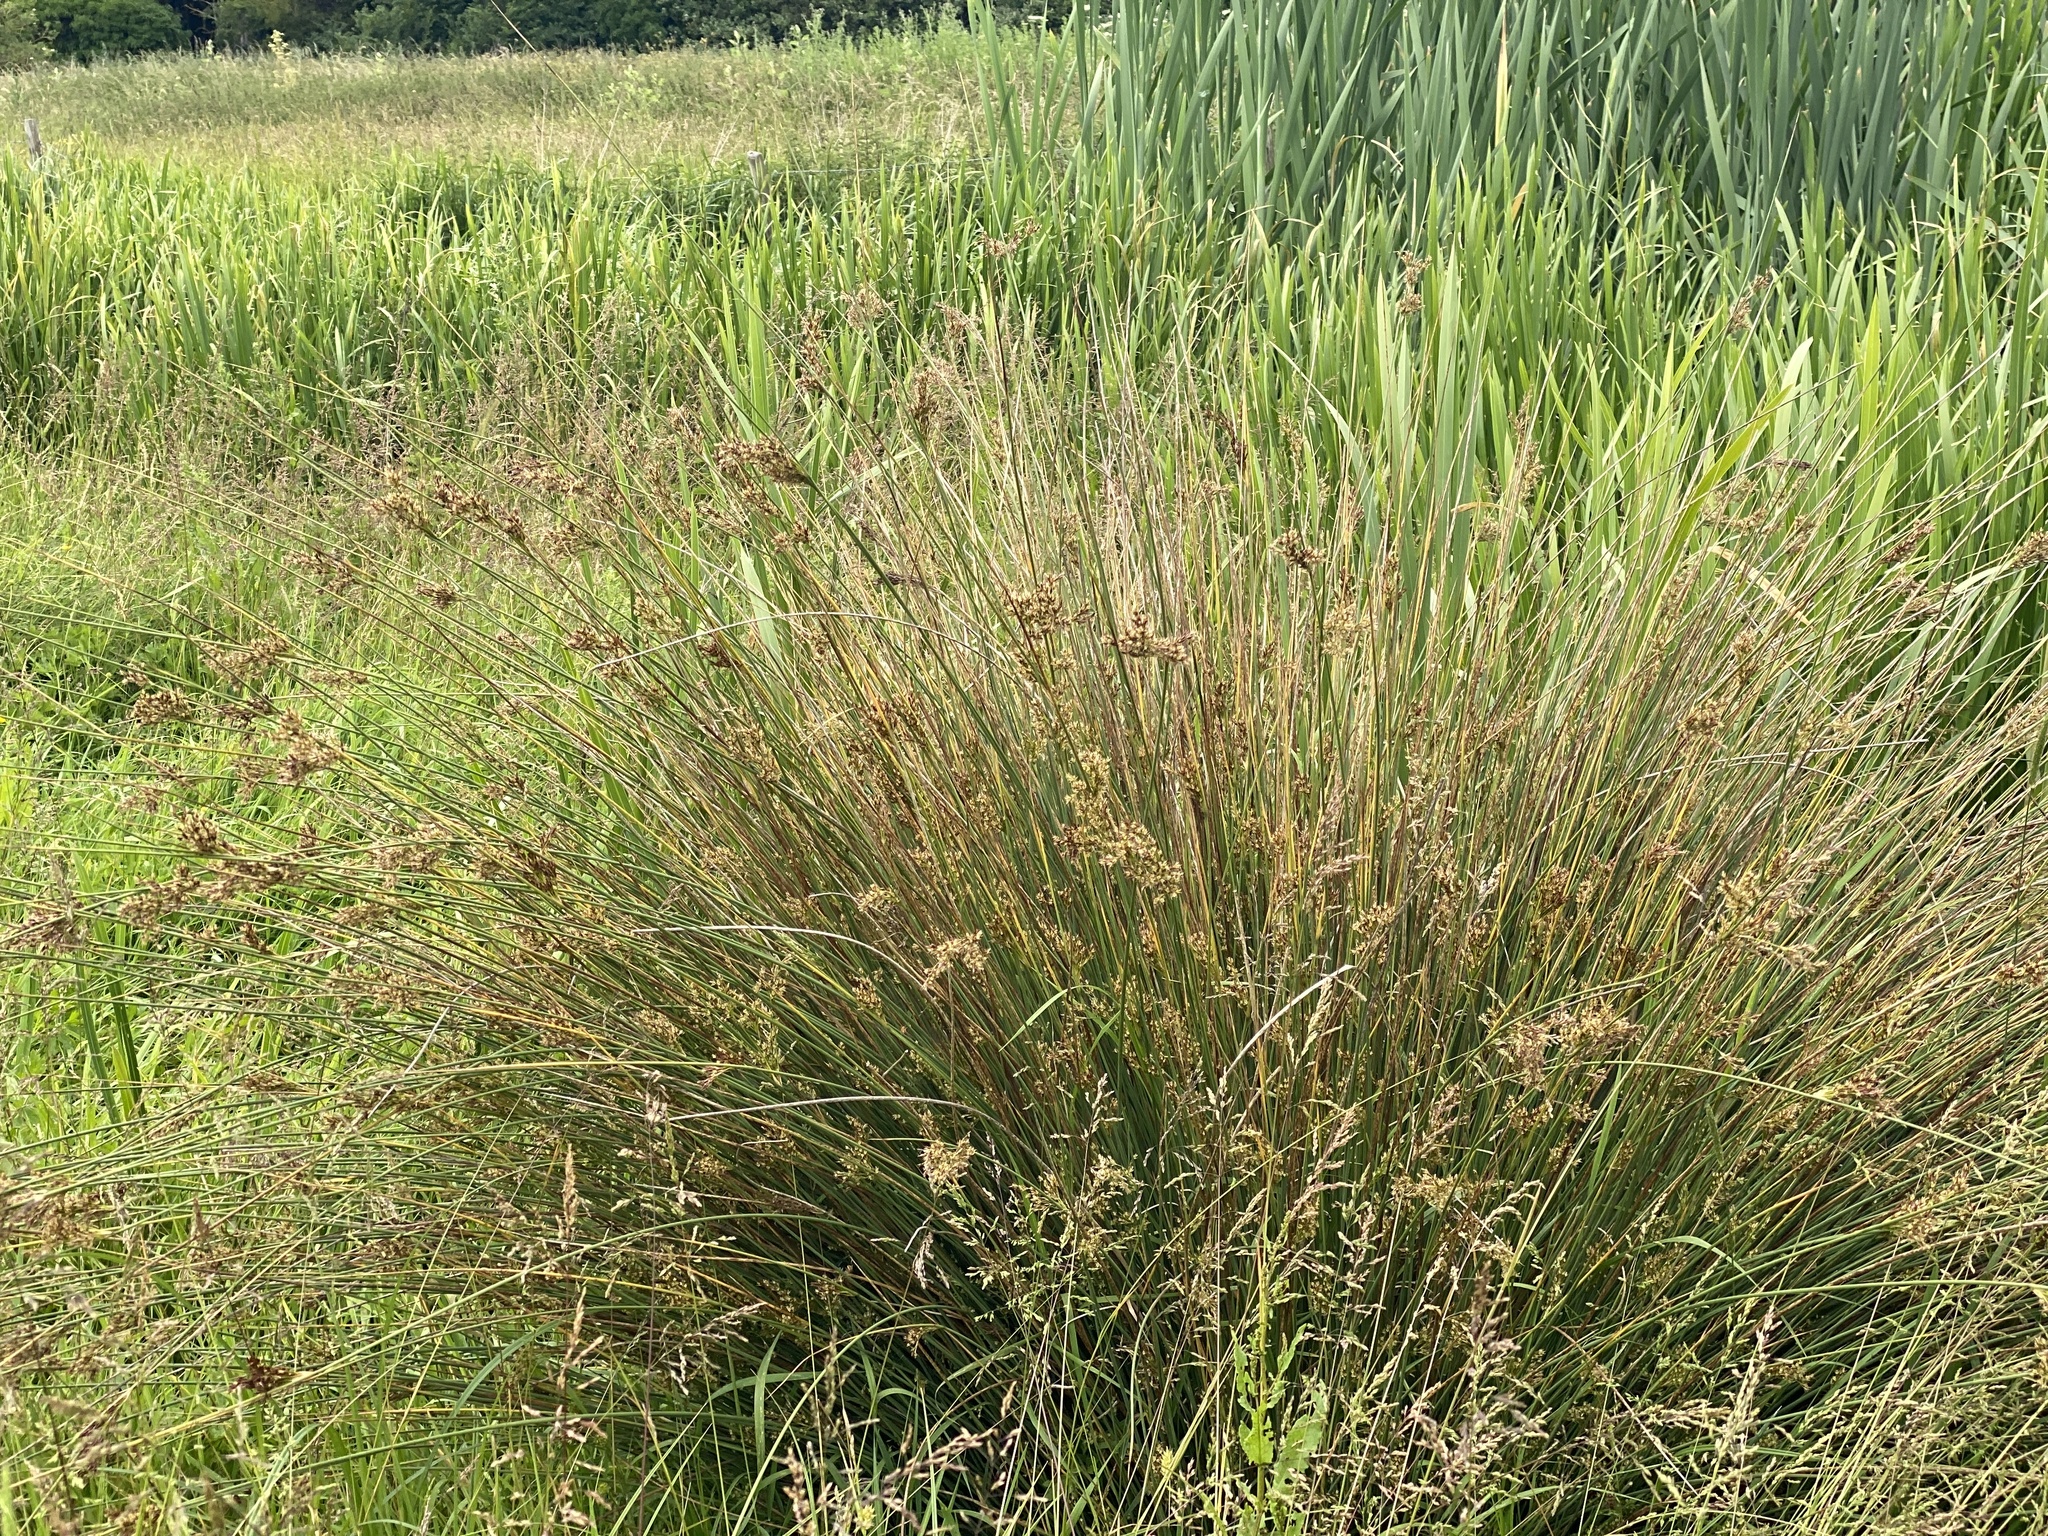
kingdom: Plantae
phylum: Tracheophyta
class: Liliopsida
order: Poales
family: Juncaceae
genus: Juncus
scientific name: Juncus inflexus
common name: Hard rush
